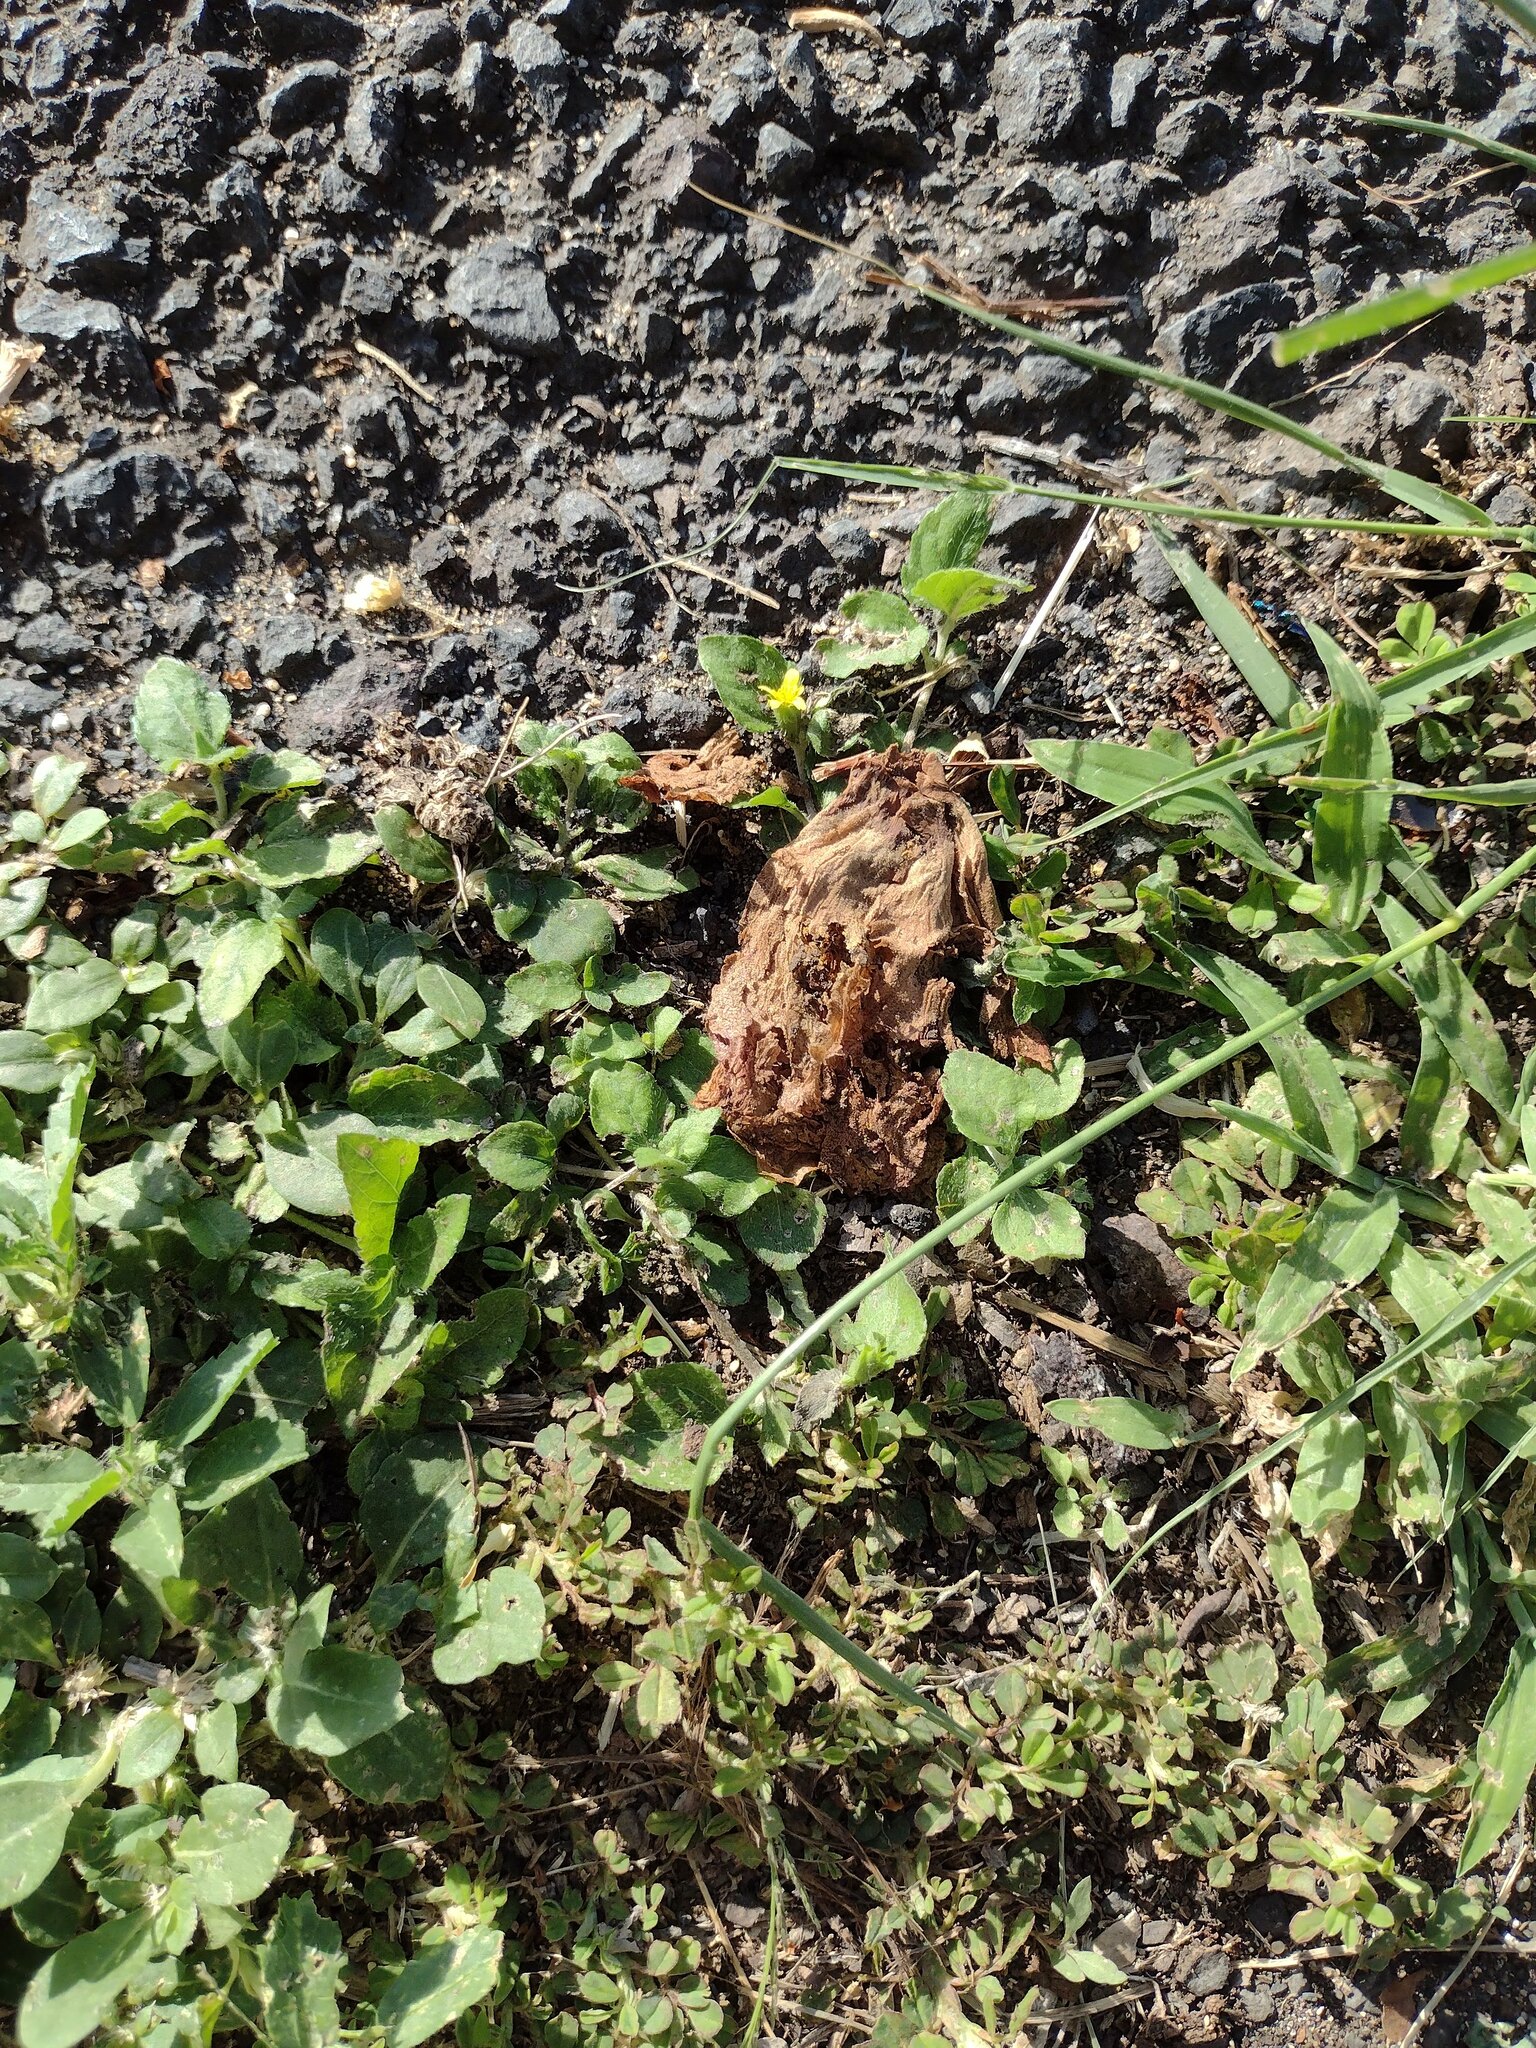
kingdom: Plantae
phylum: Tracheophyta
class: Magnoliopsida
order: Asterales
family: Asteraceae
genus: Calyptocarpus
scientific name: Calyptocarpus vialis
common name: Straggler daisy
